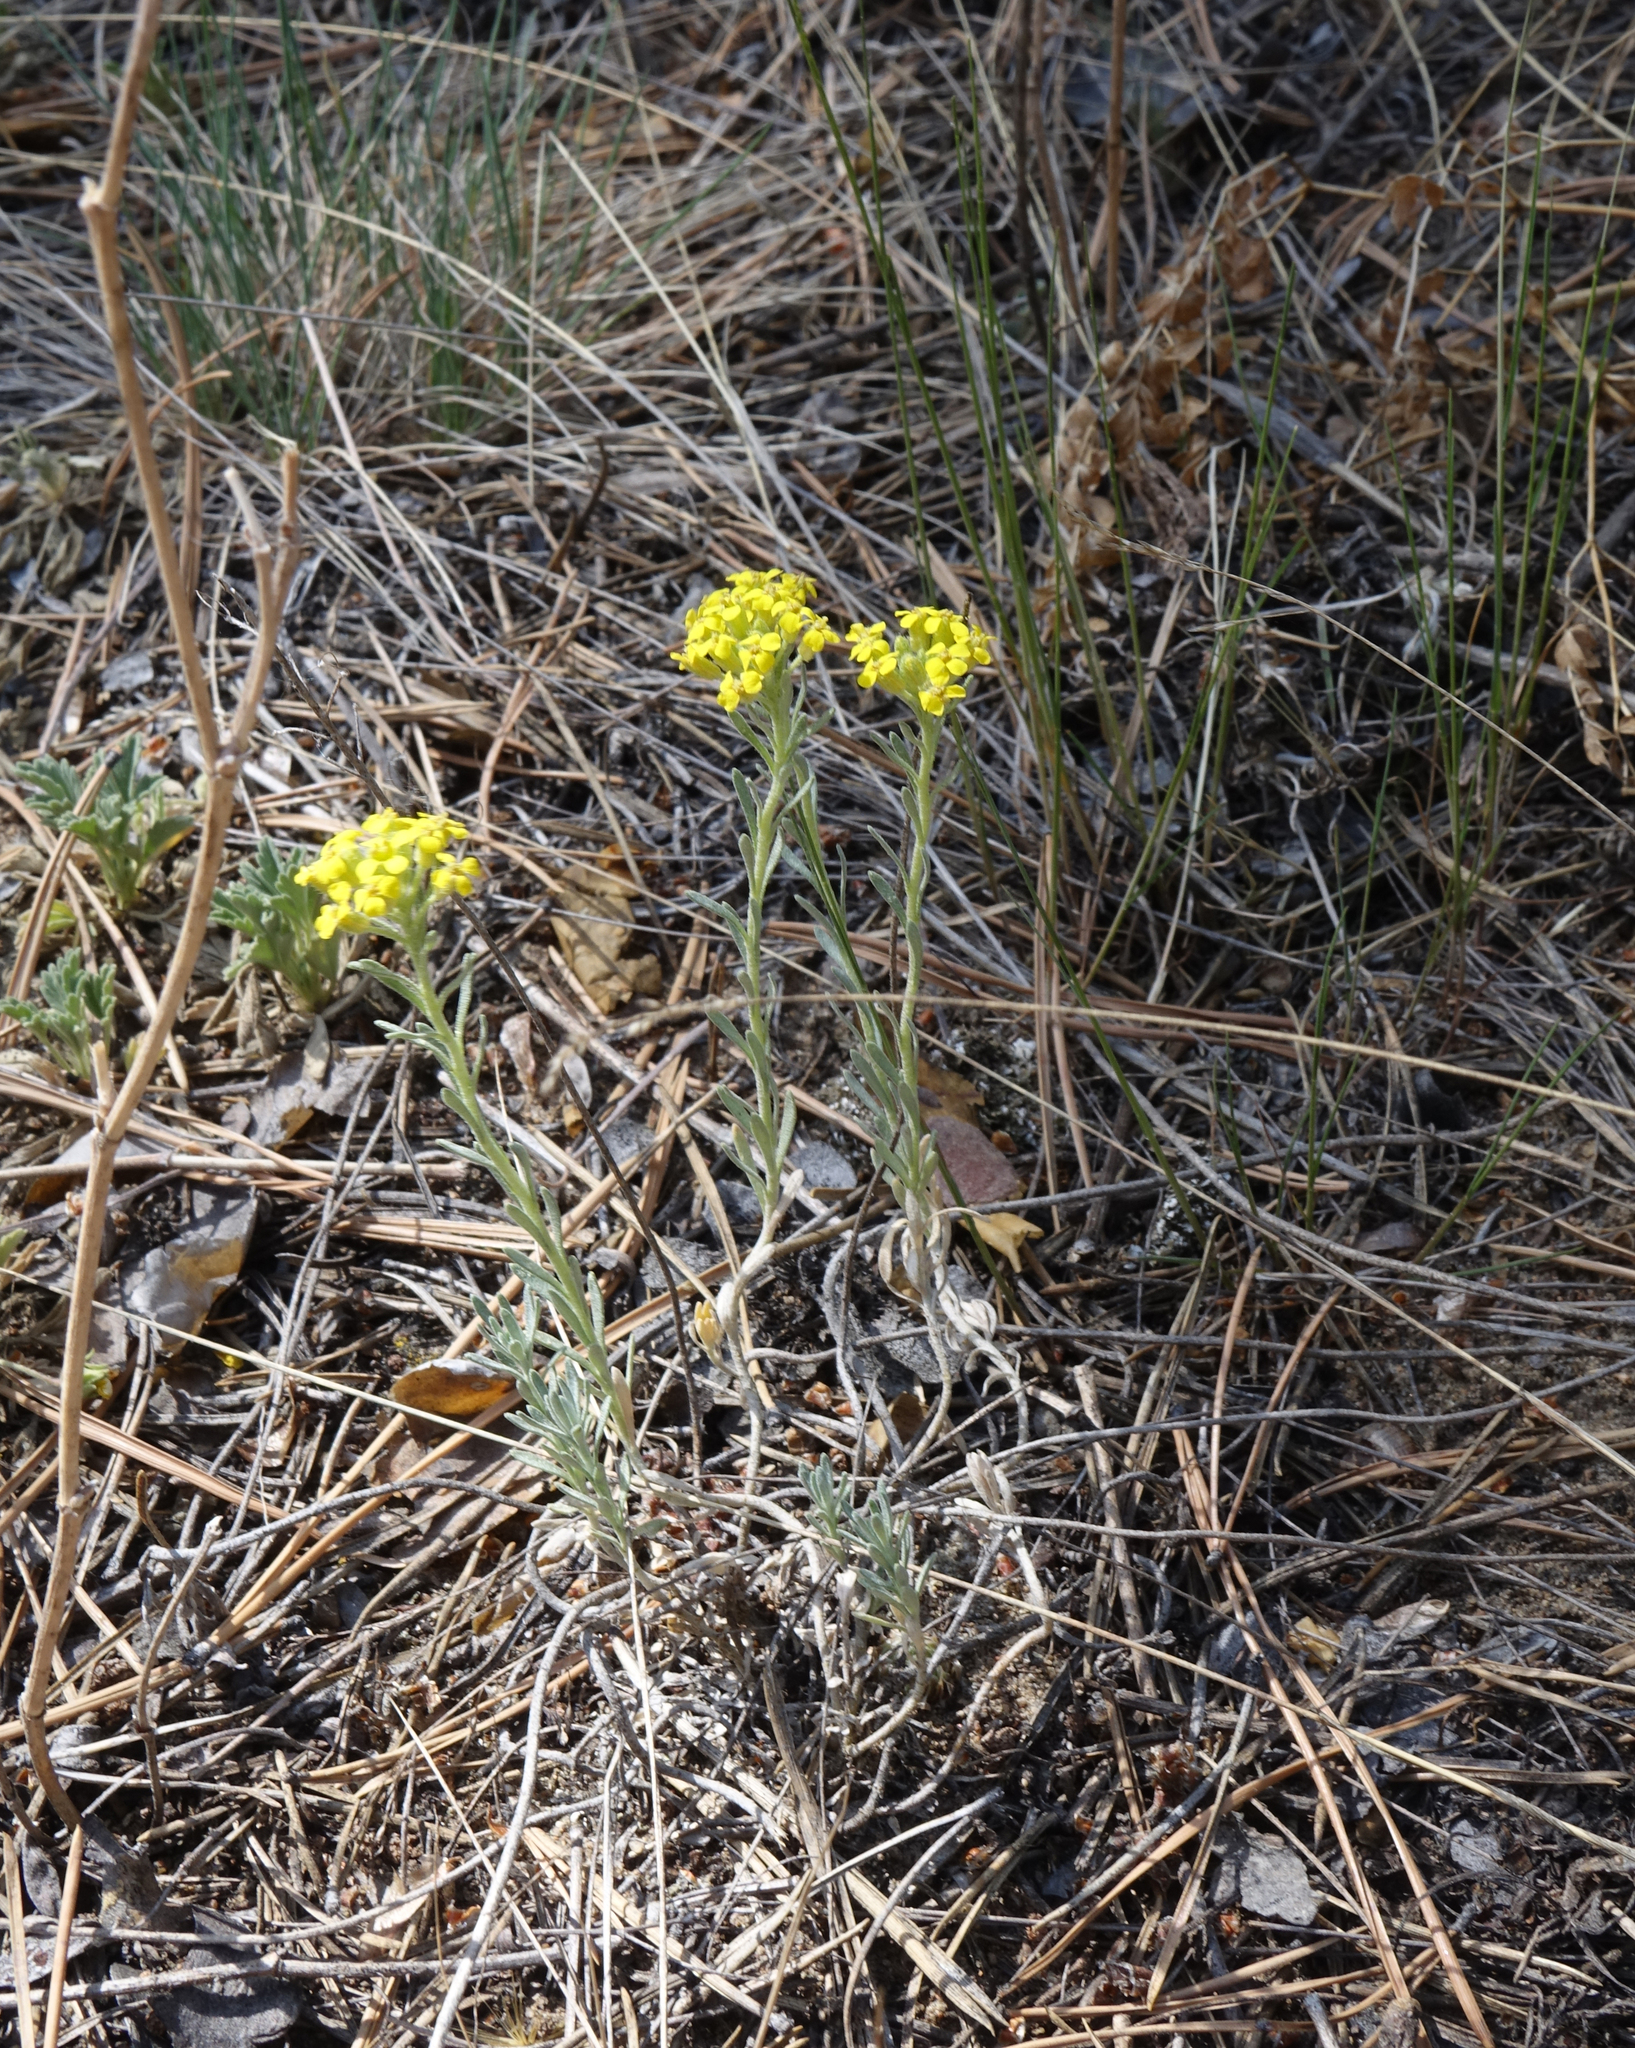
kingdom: Plantae
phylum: Tracheophyta
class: Magnoliopsida
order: Brassicales
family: Brassicaceae
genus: Alyssum
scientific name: Alyssum lenense
